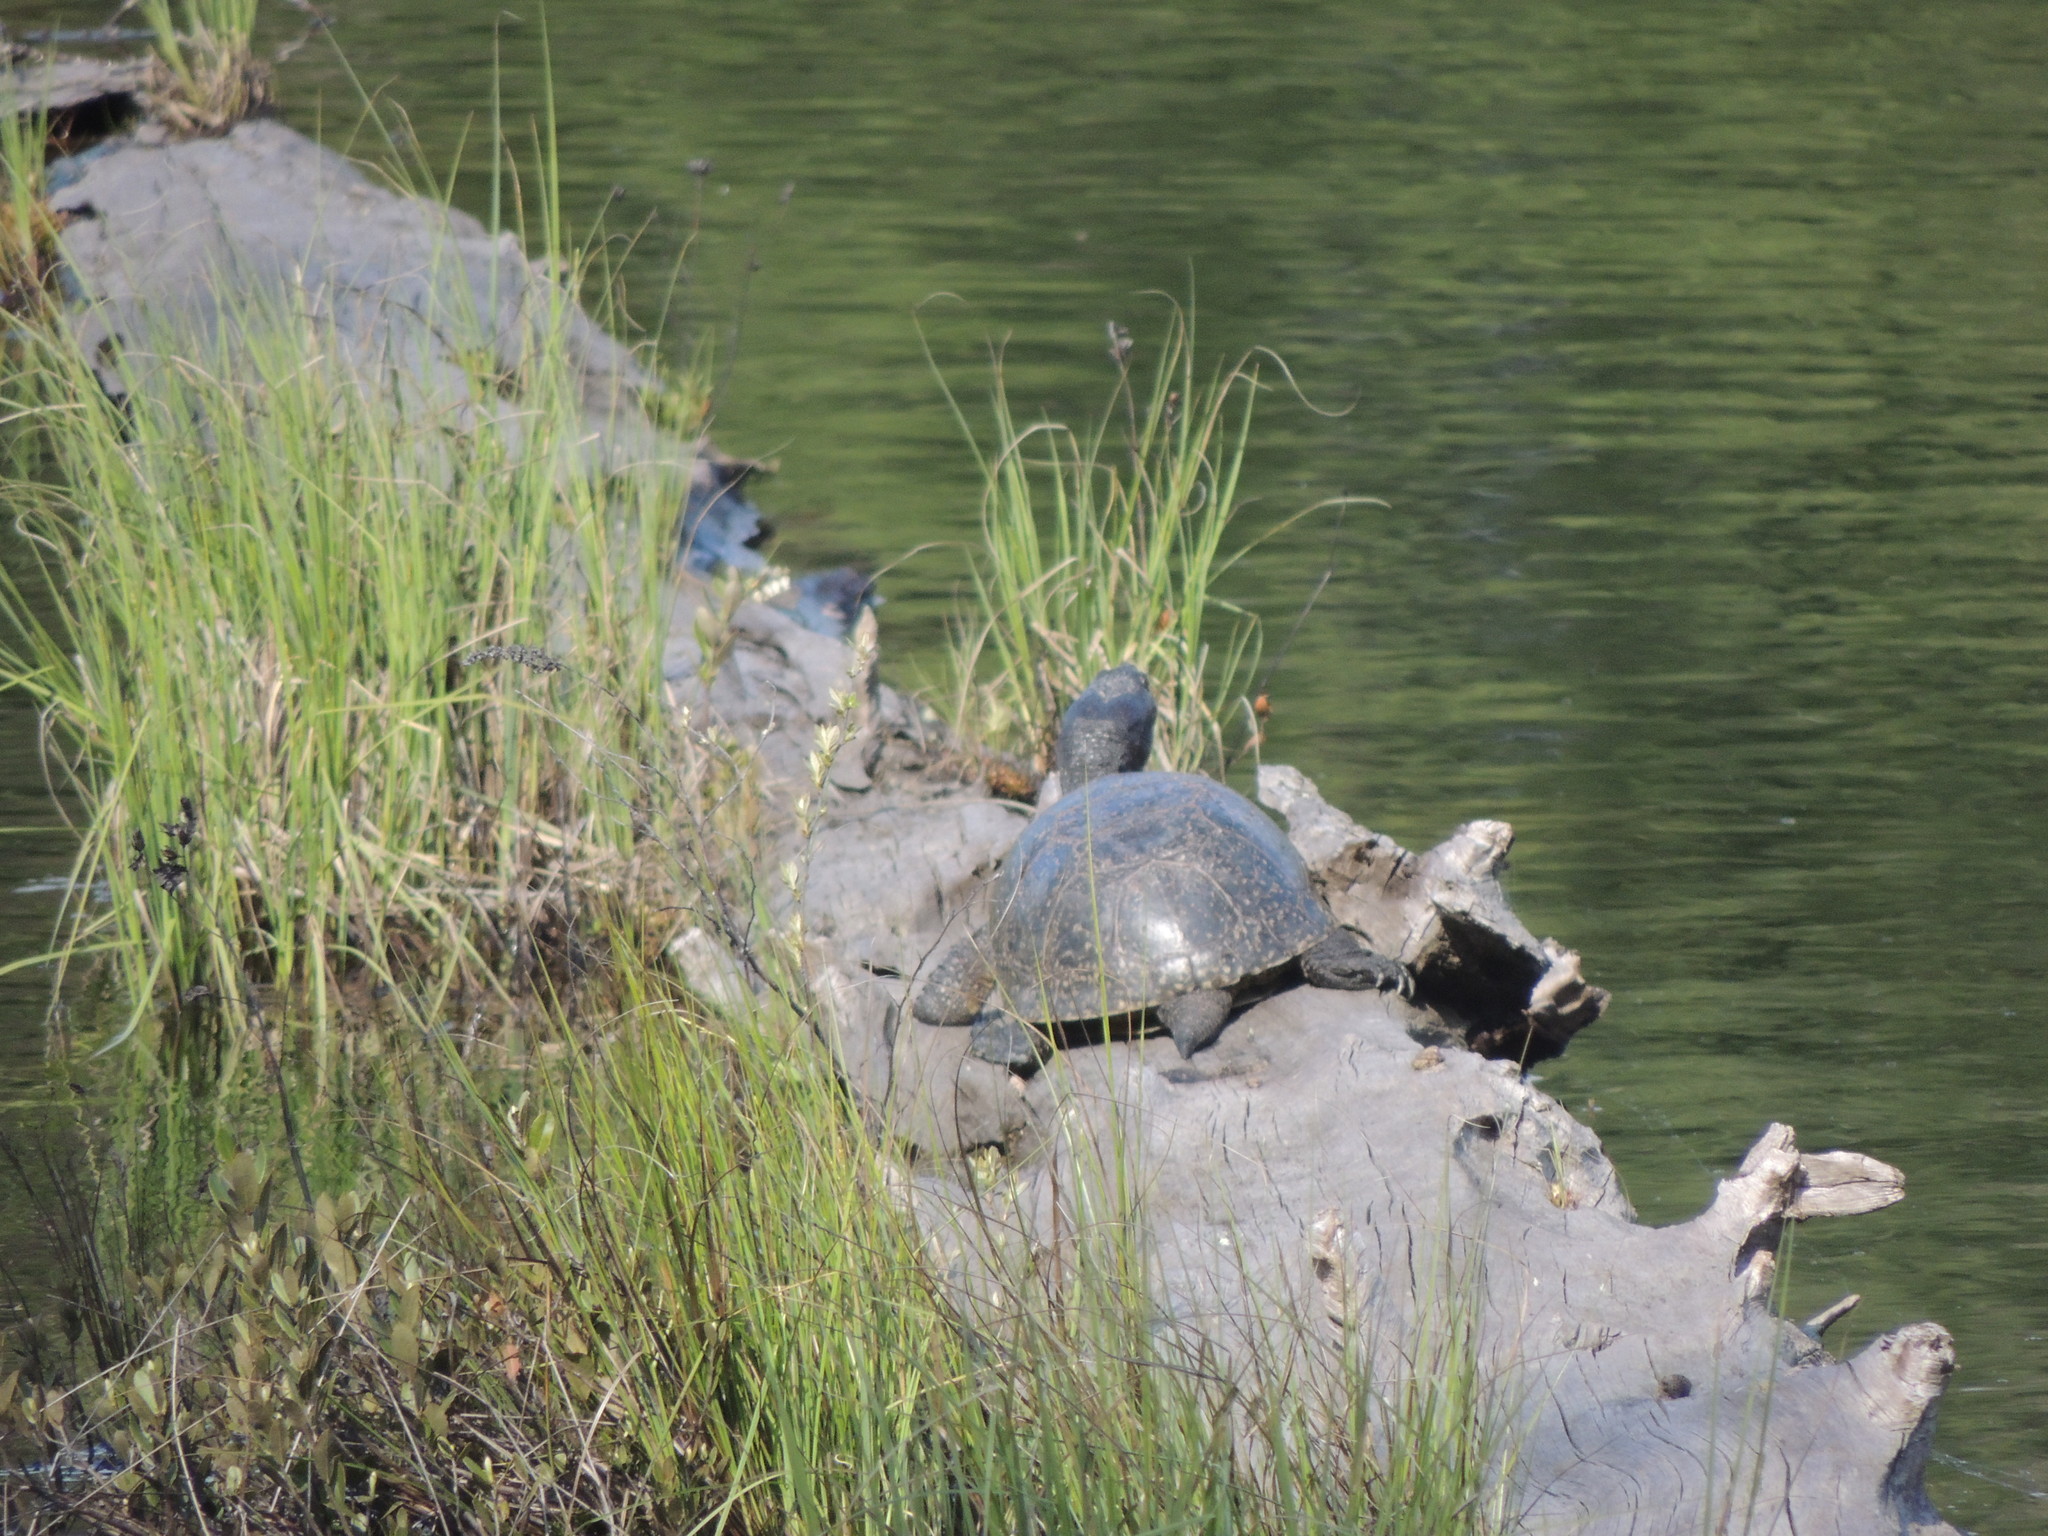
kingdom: Animalia
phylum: Chordata
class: Testudines
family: Emydidae
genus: Emys
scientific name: Emys blandingii
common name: Blanding's turtle
